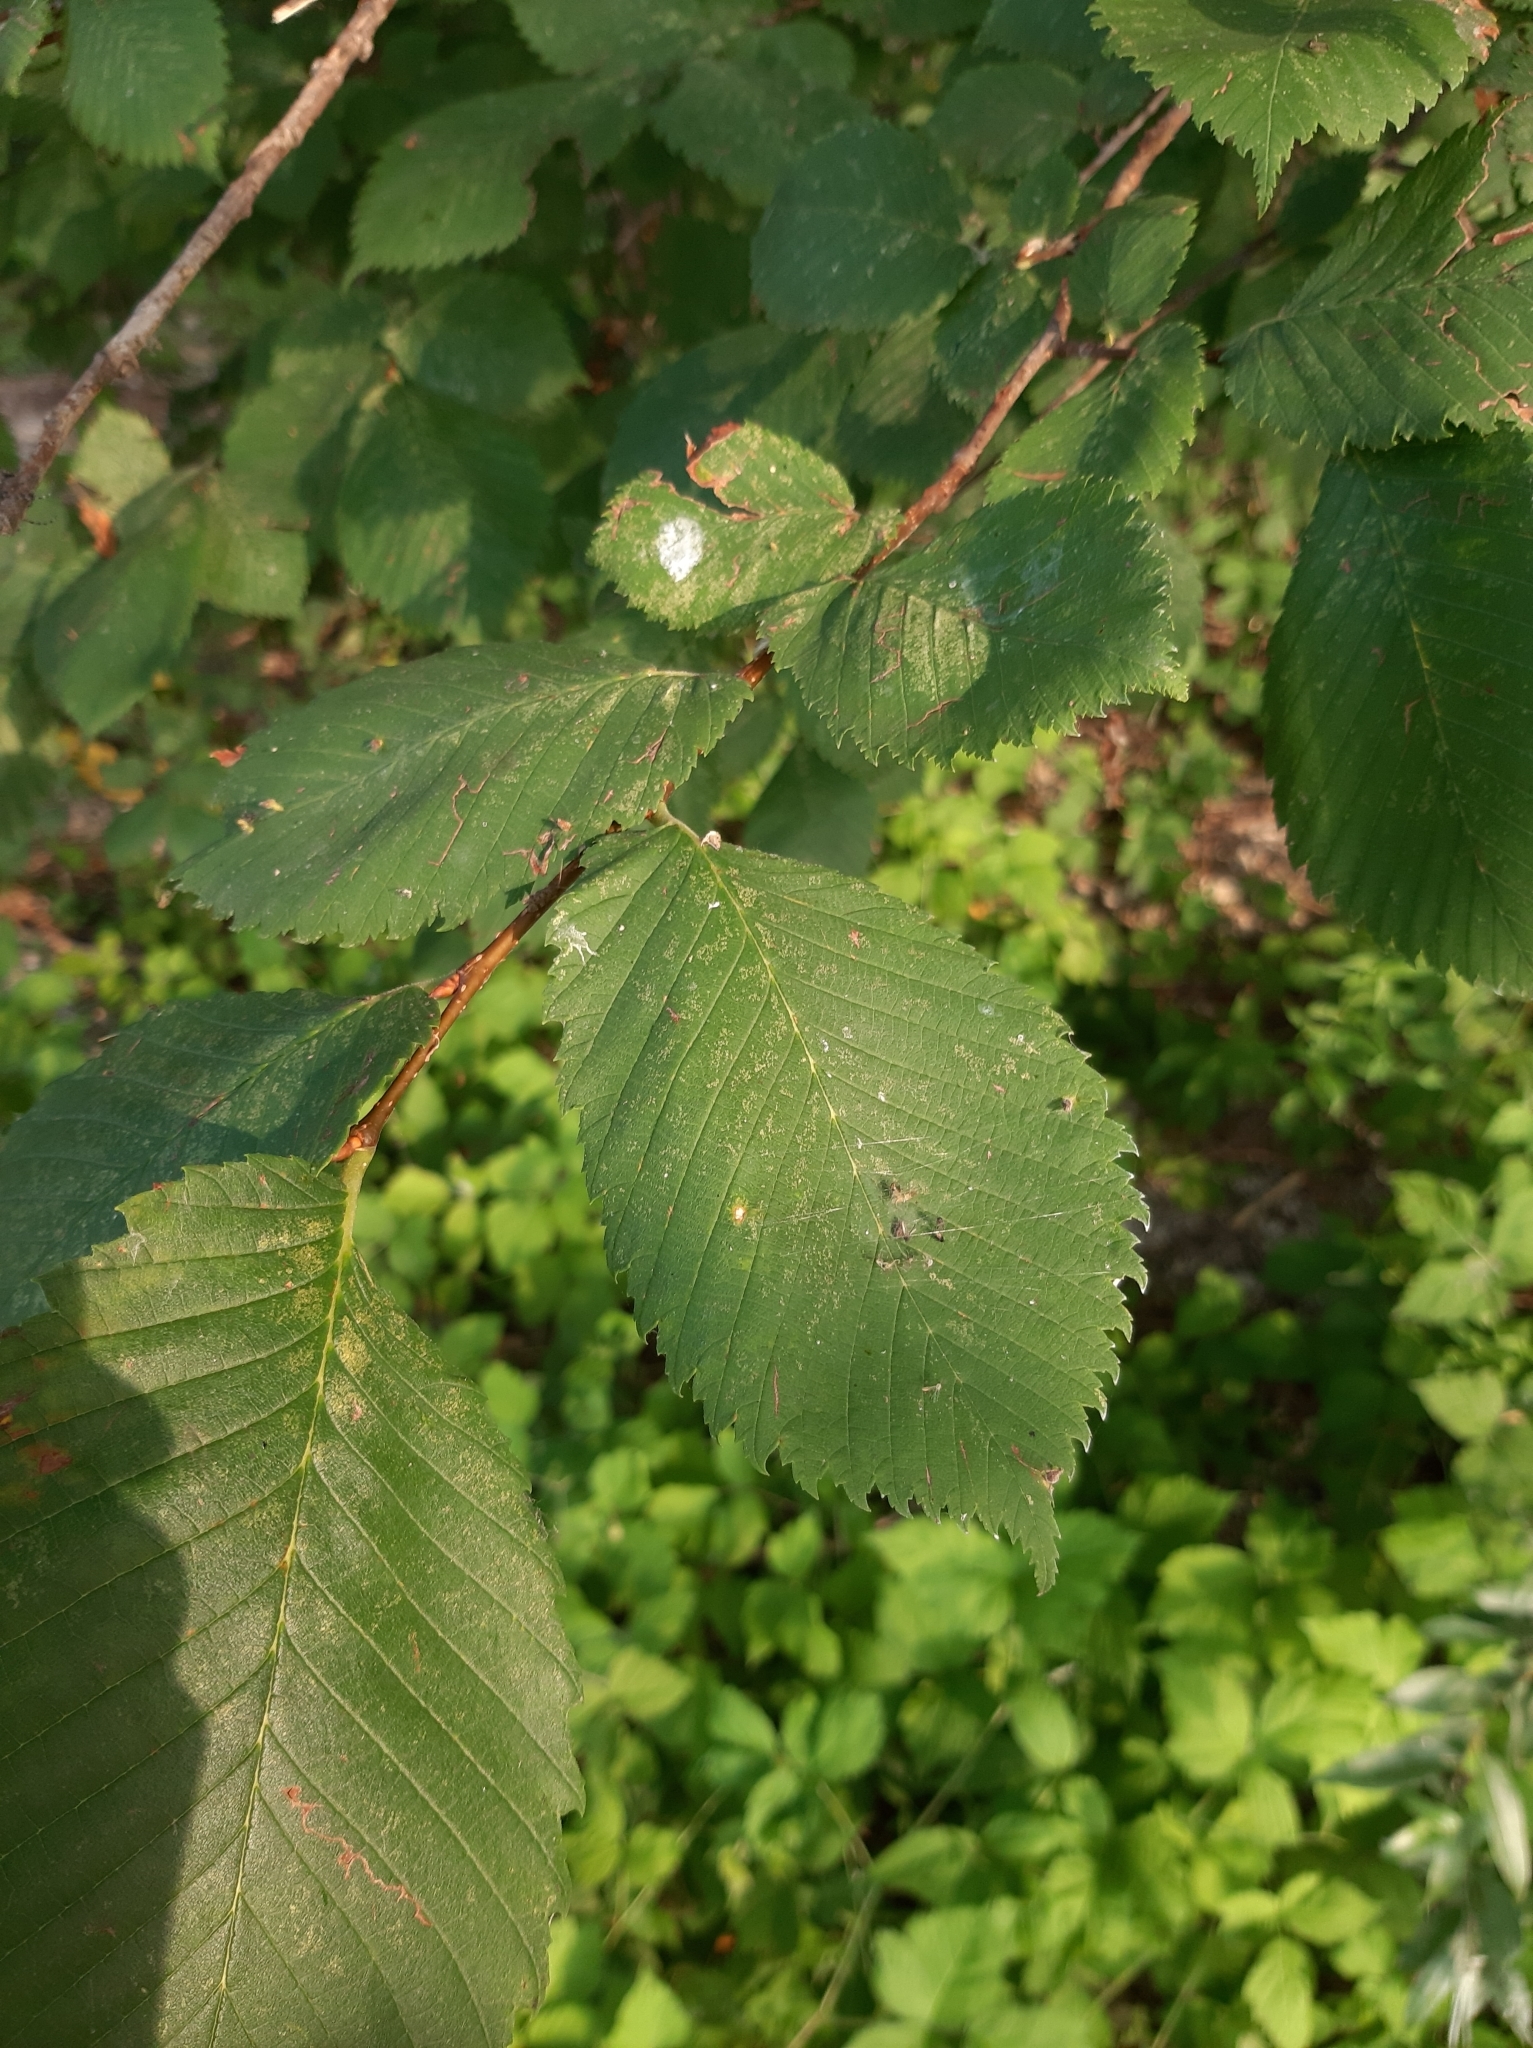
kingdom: Plantae
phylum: Tracheophyta
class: Magnoliopsida
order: Rosales
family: Ulmaceae
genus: Ulmus
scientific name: Ulmus laevis
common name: European white-elm
